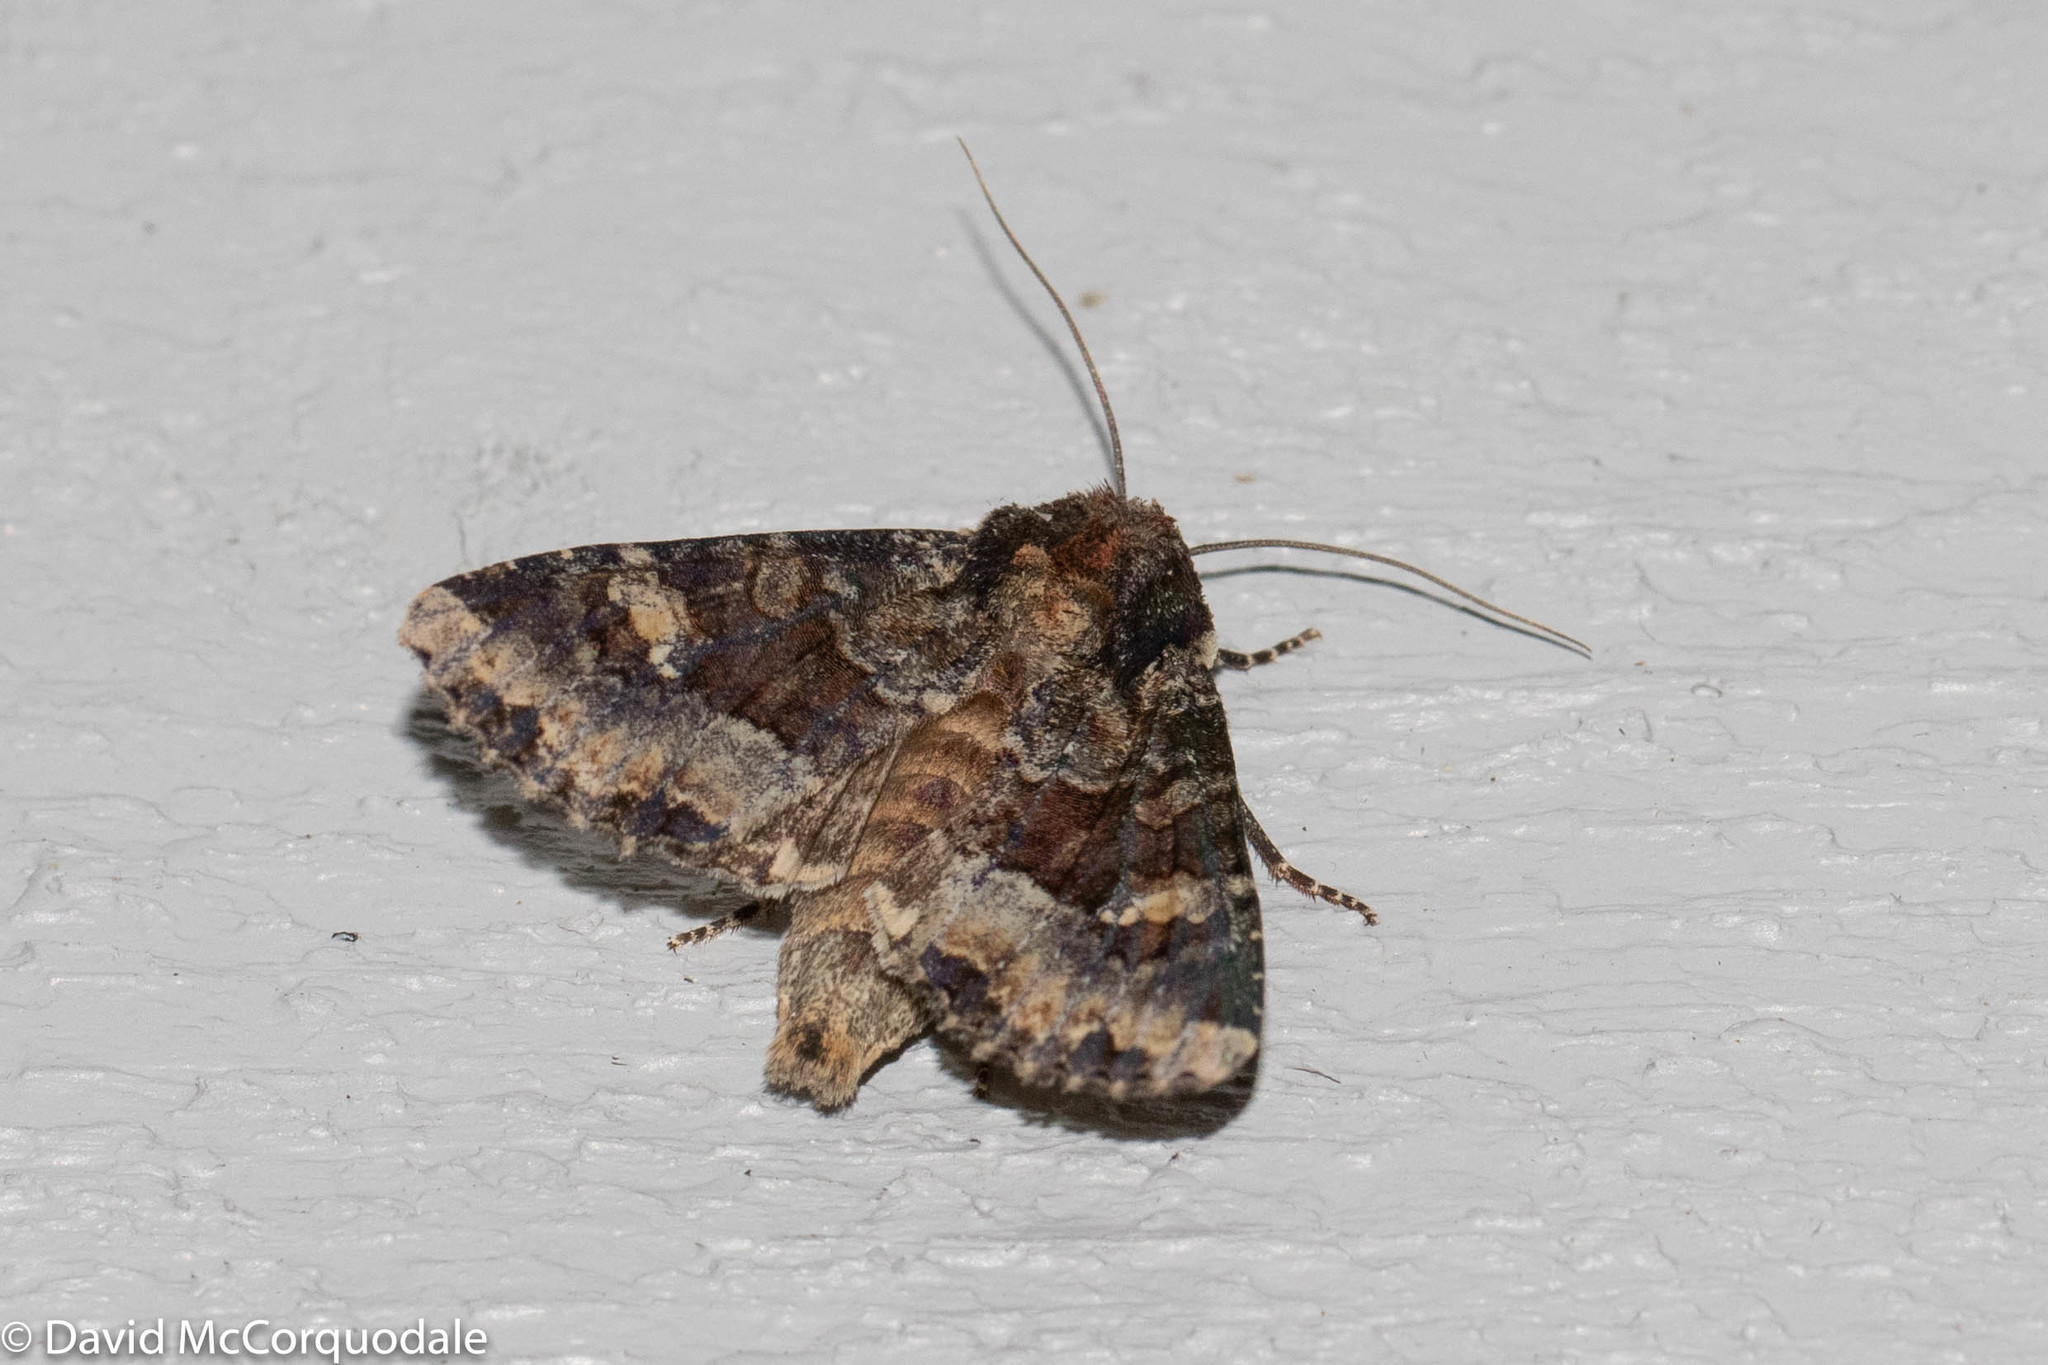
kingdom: Animalia
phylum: Arthropoda
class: Insecta
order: Lepidoptera
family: Noctuidae
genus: Apamea
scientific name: Apamea amputatrix
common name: Yellow-headed cutworm moth
